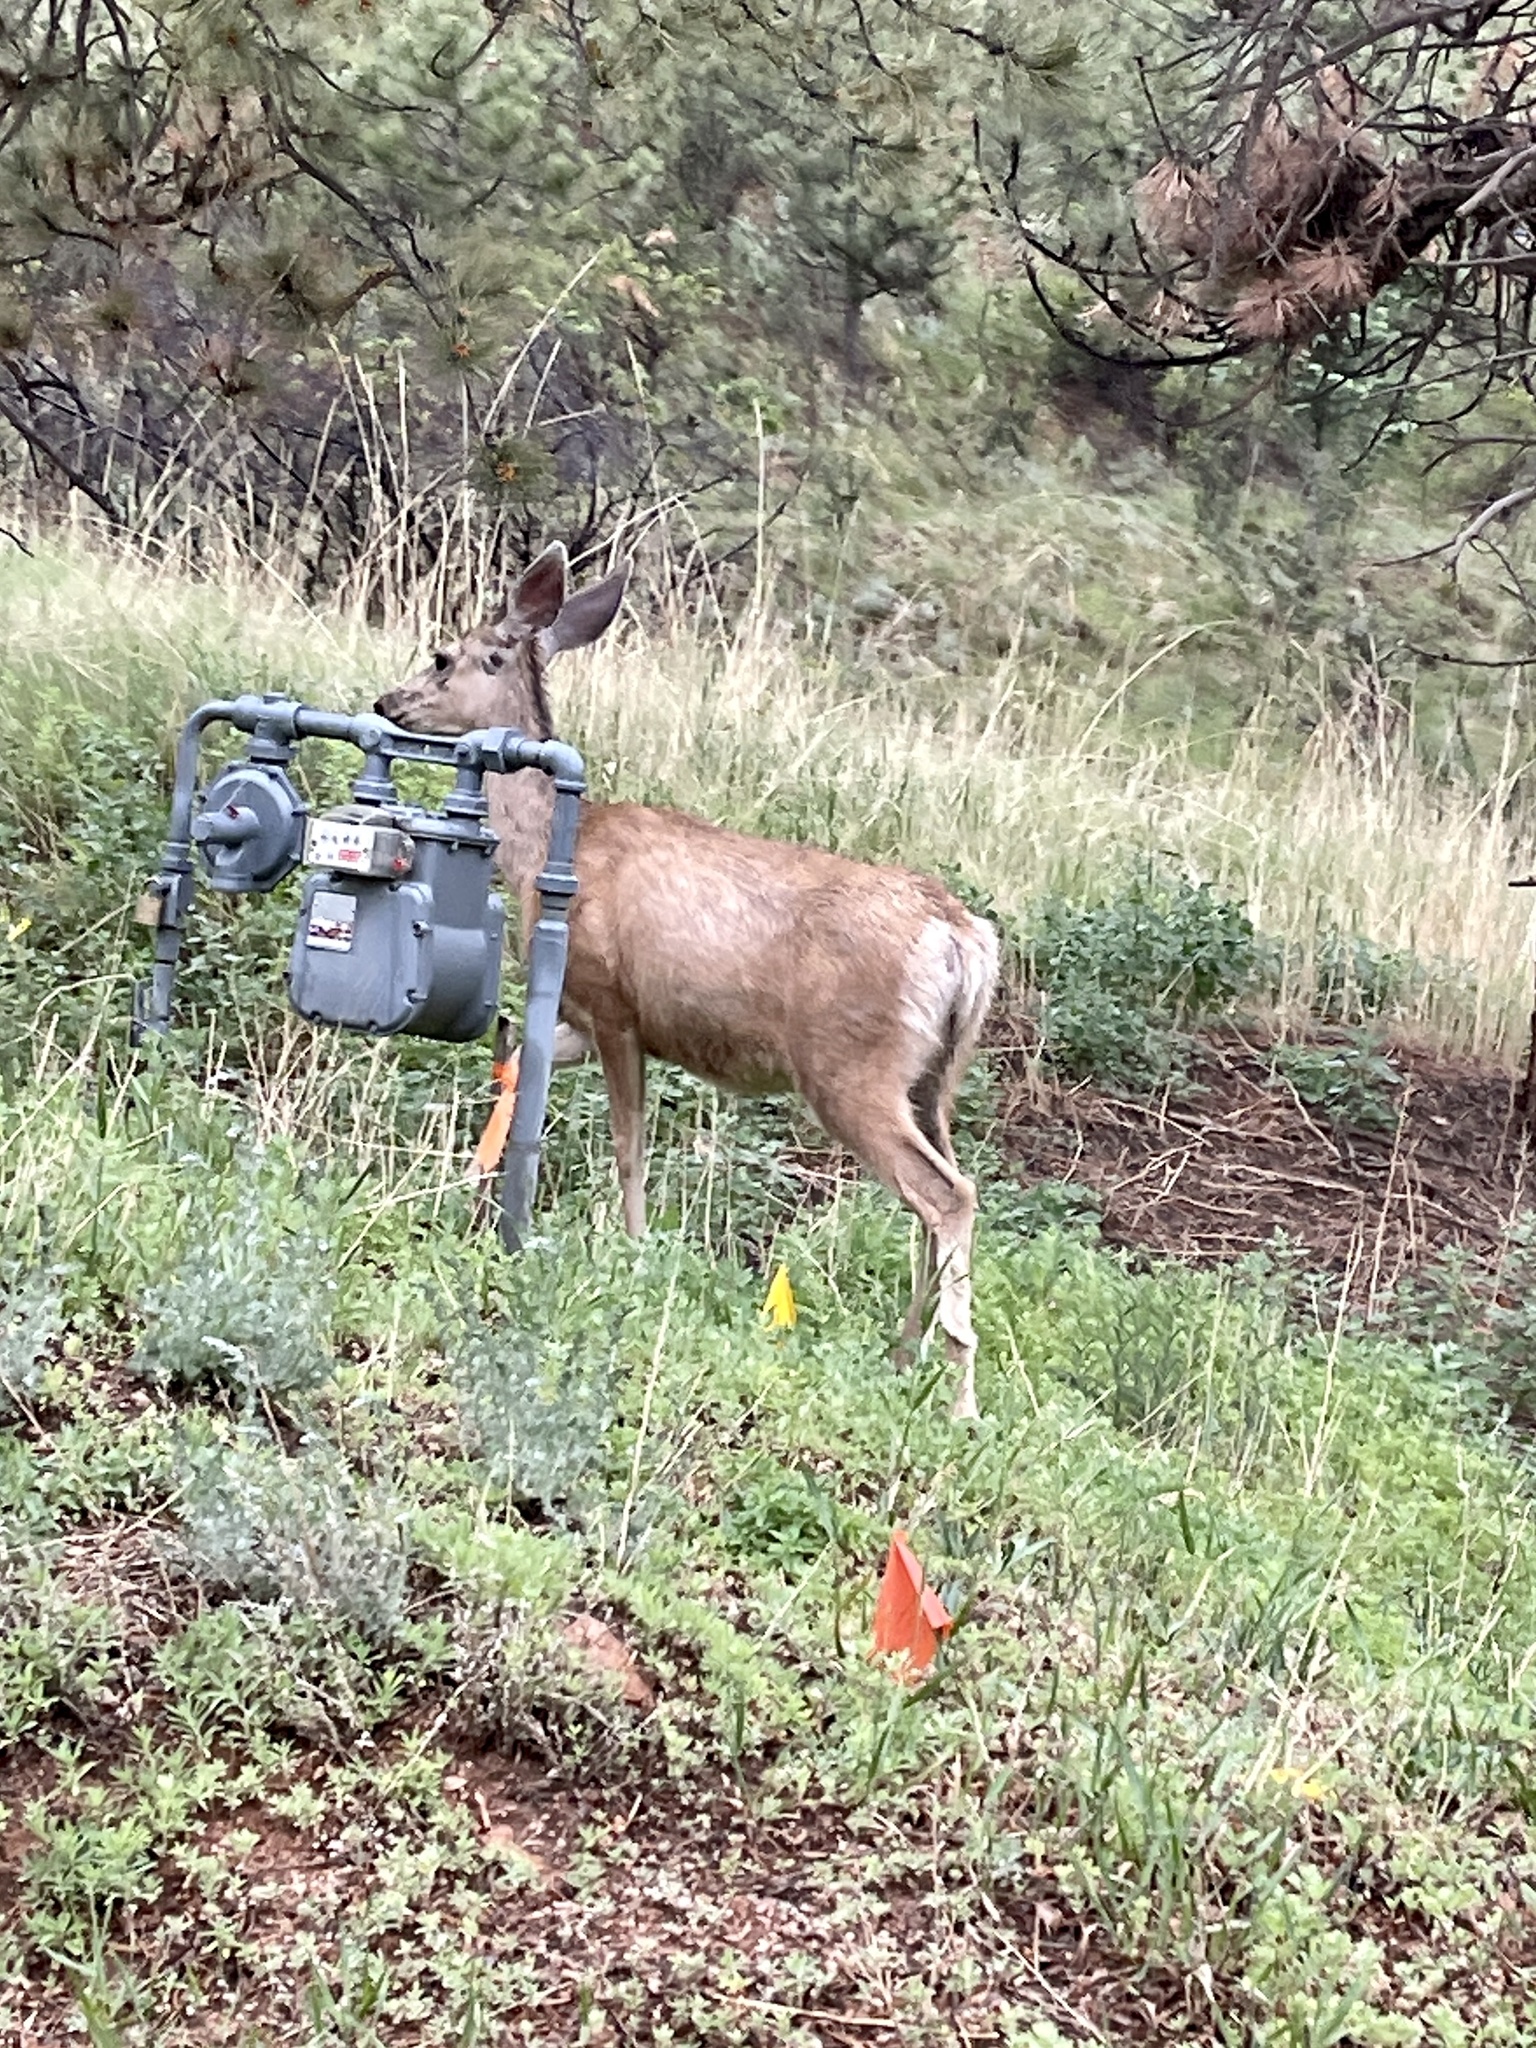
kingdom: Animalia
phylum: Chordata
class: Mammalia
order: Artiodactyla
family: Cervidae
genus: Odocoileus
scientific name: Odocoileus hemionus
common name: Mule deer
